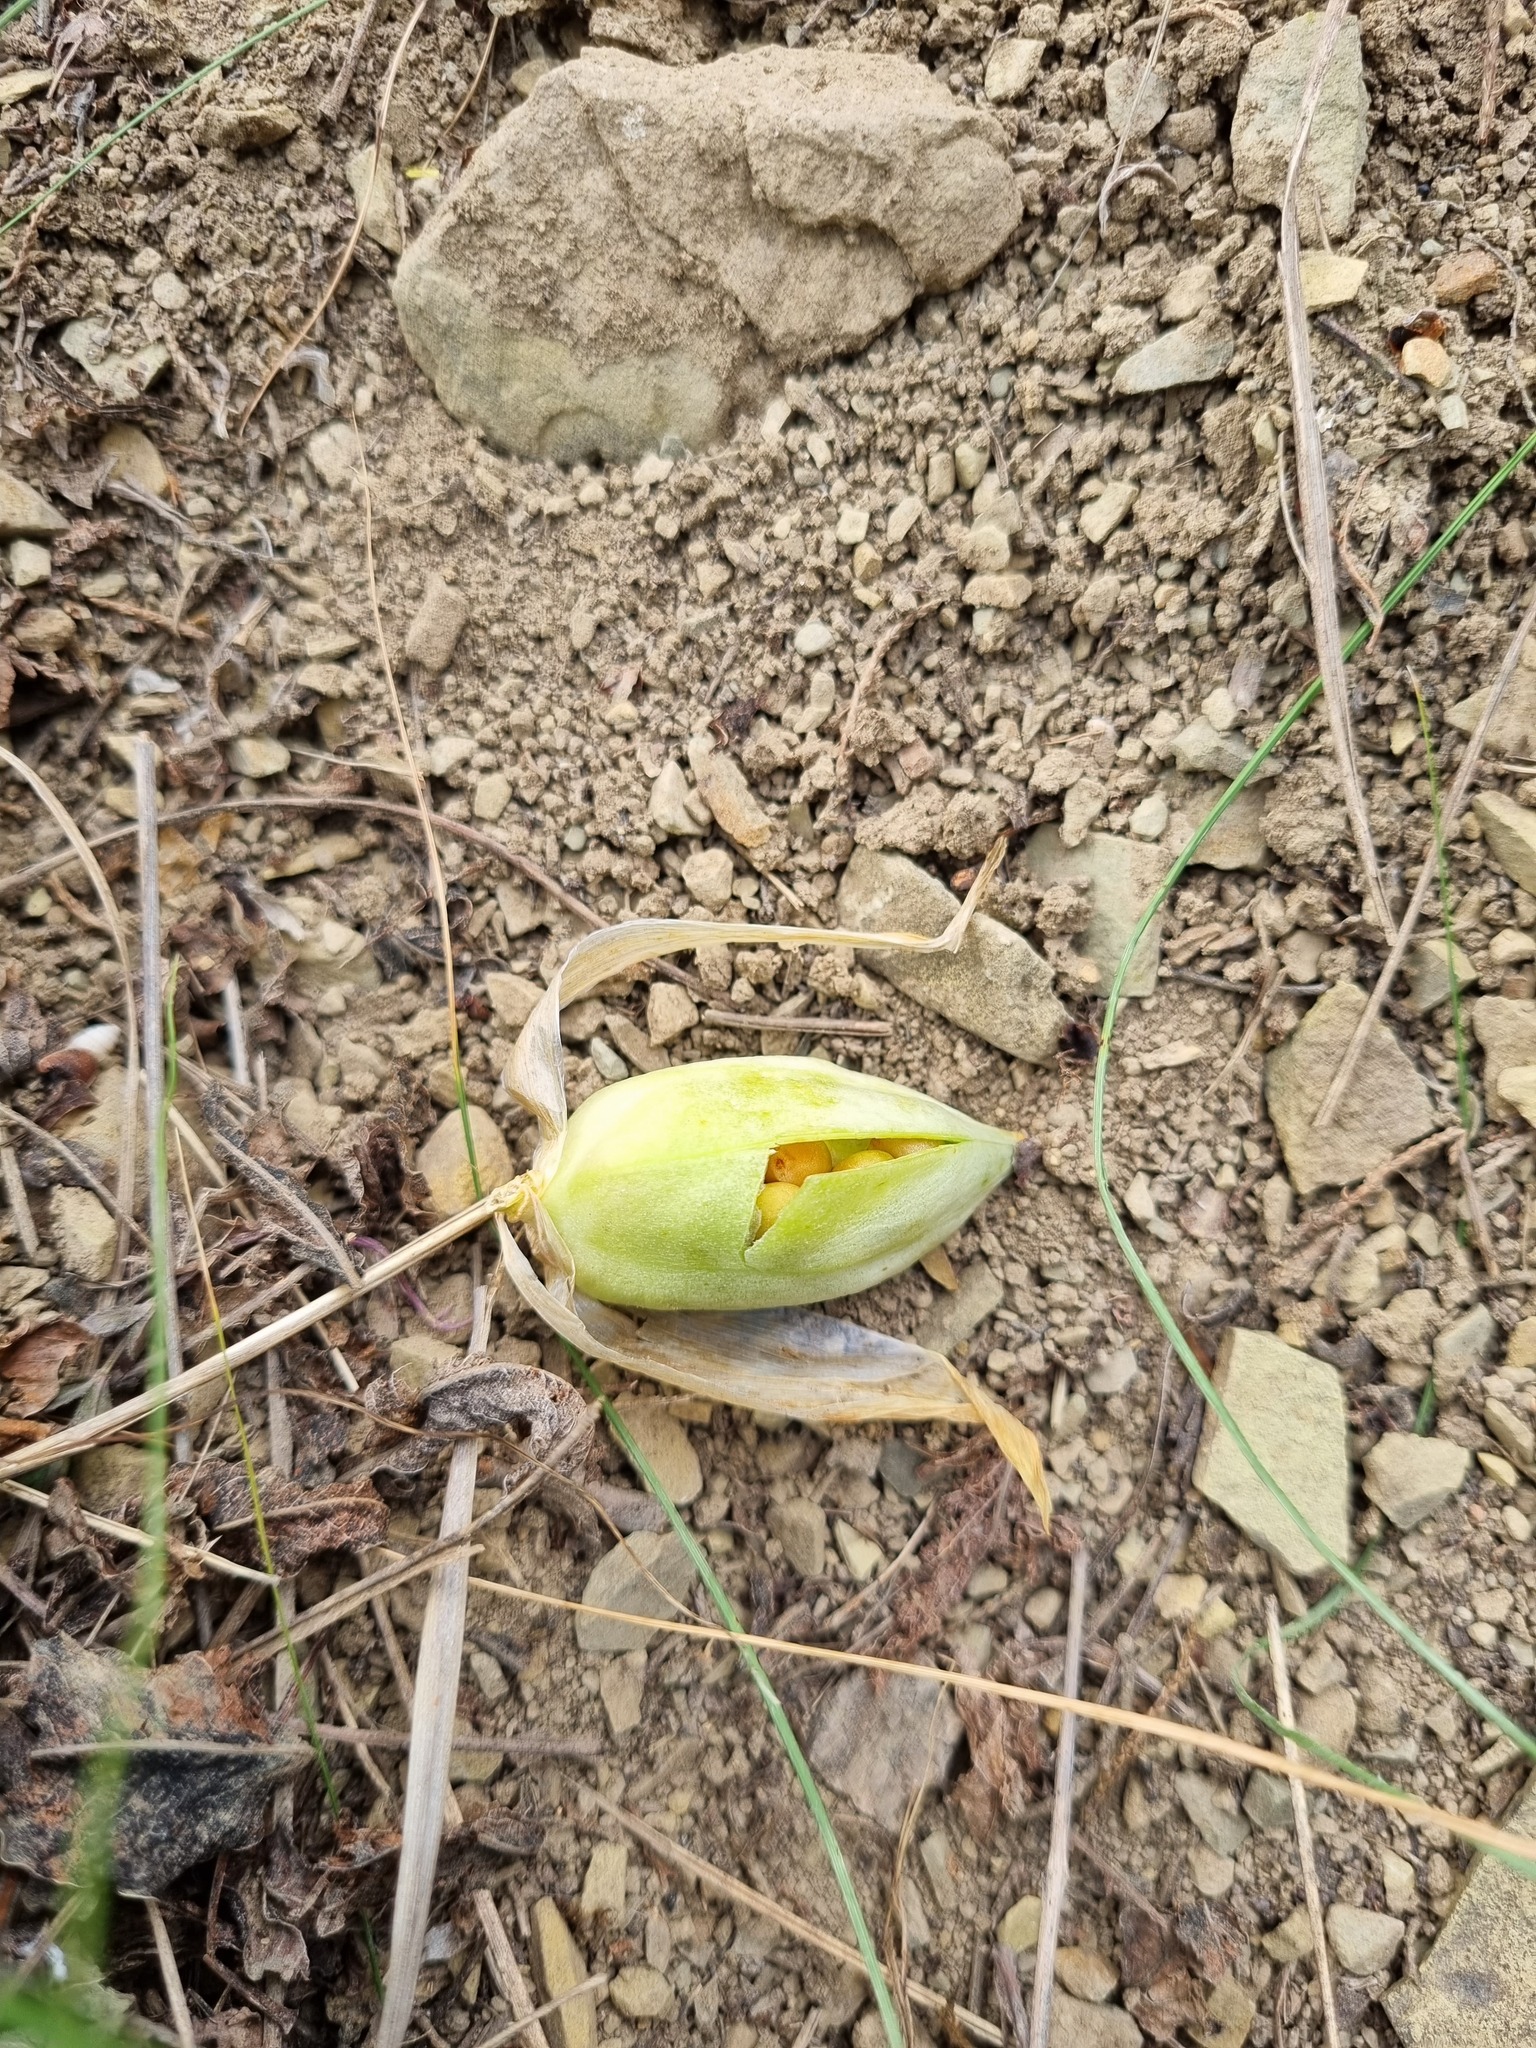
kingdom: Plantae
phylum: Tracheophyta
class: Liliopsida
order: Asparagales
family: Iridaceae
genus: Iris
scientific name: Iris pumila
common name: Dwarf iris
